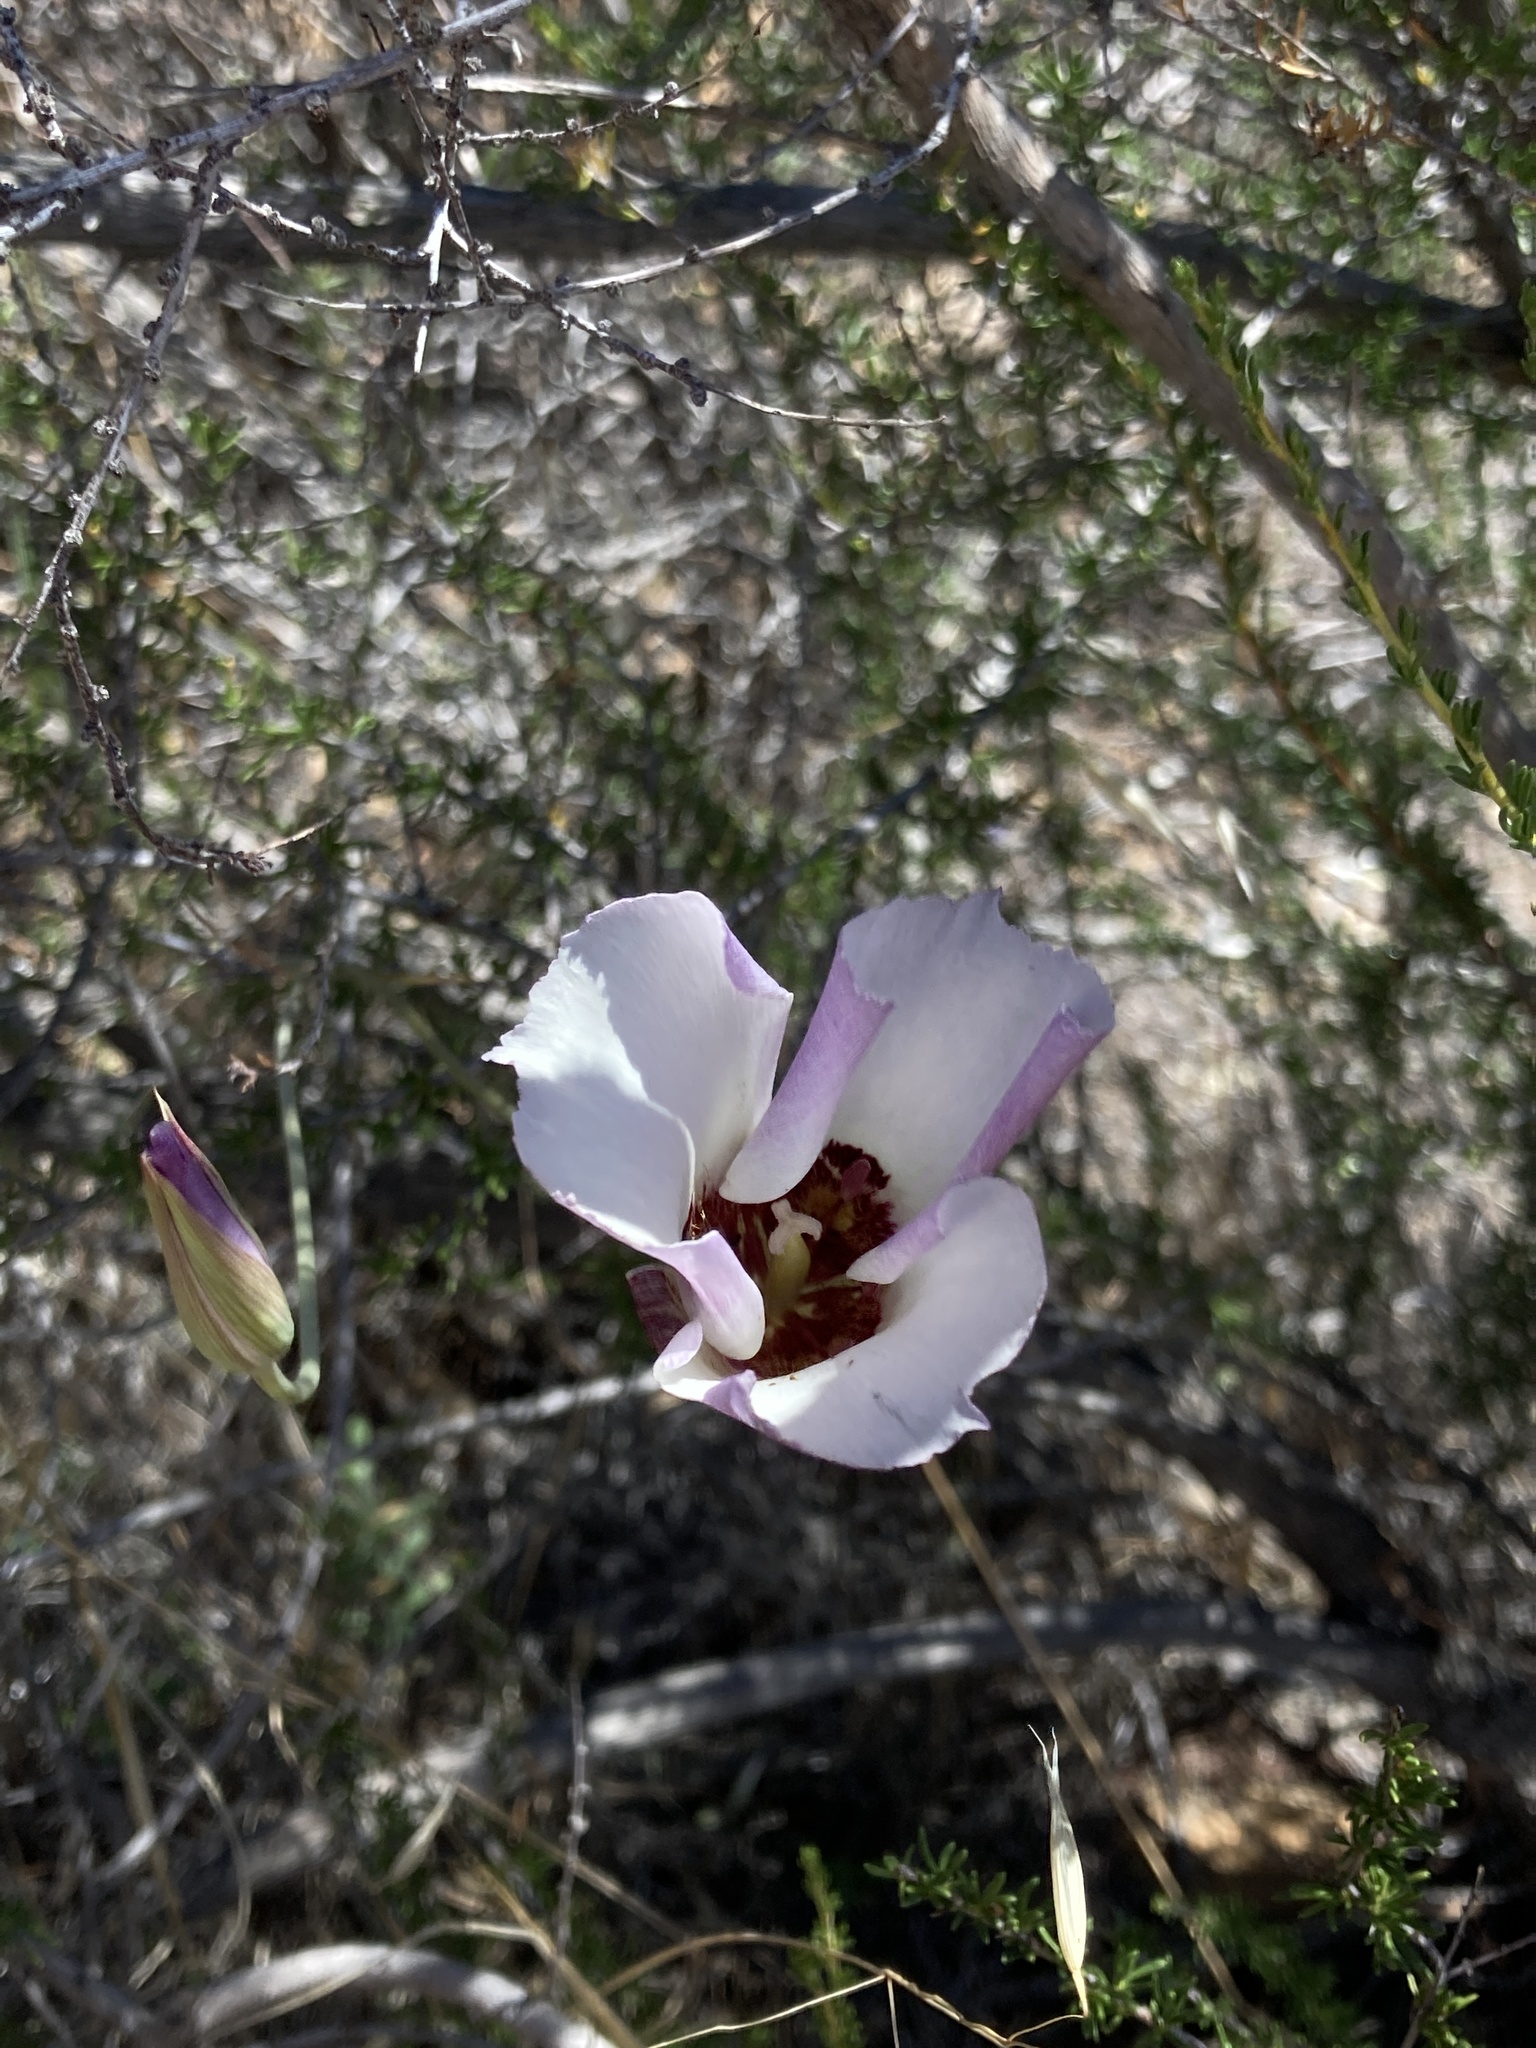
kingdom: Plantae
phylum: Tracheophyta
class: Liliopsida
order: Liliales
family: Liliaceae
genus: Calochortus
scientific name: Calochortus simulans
